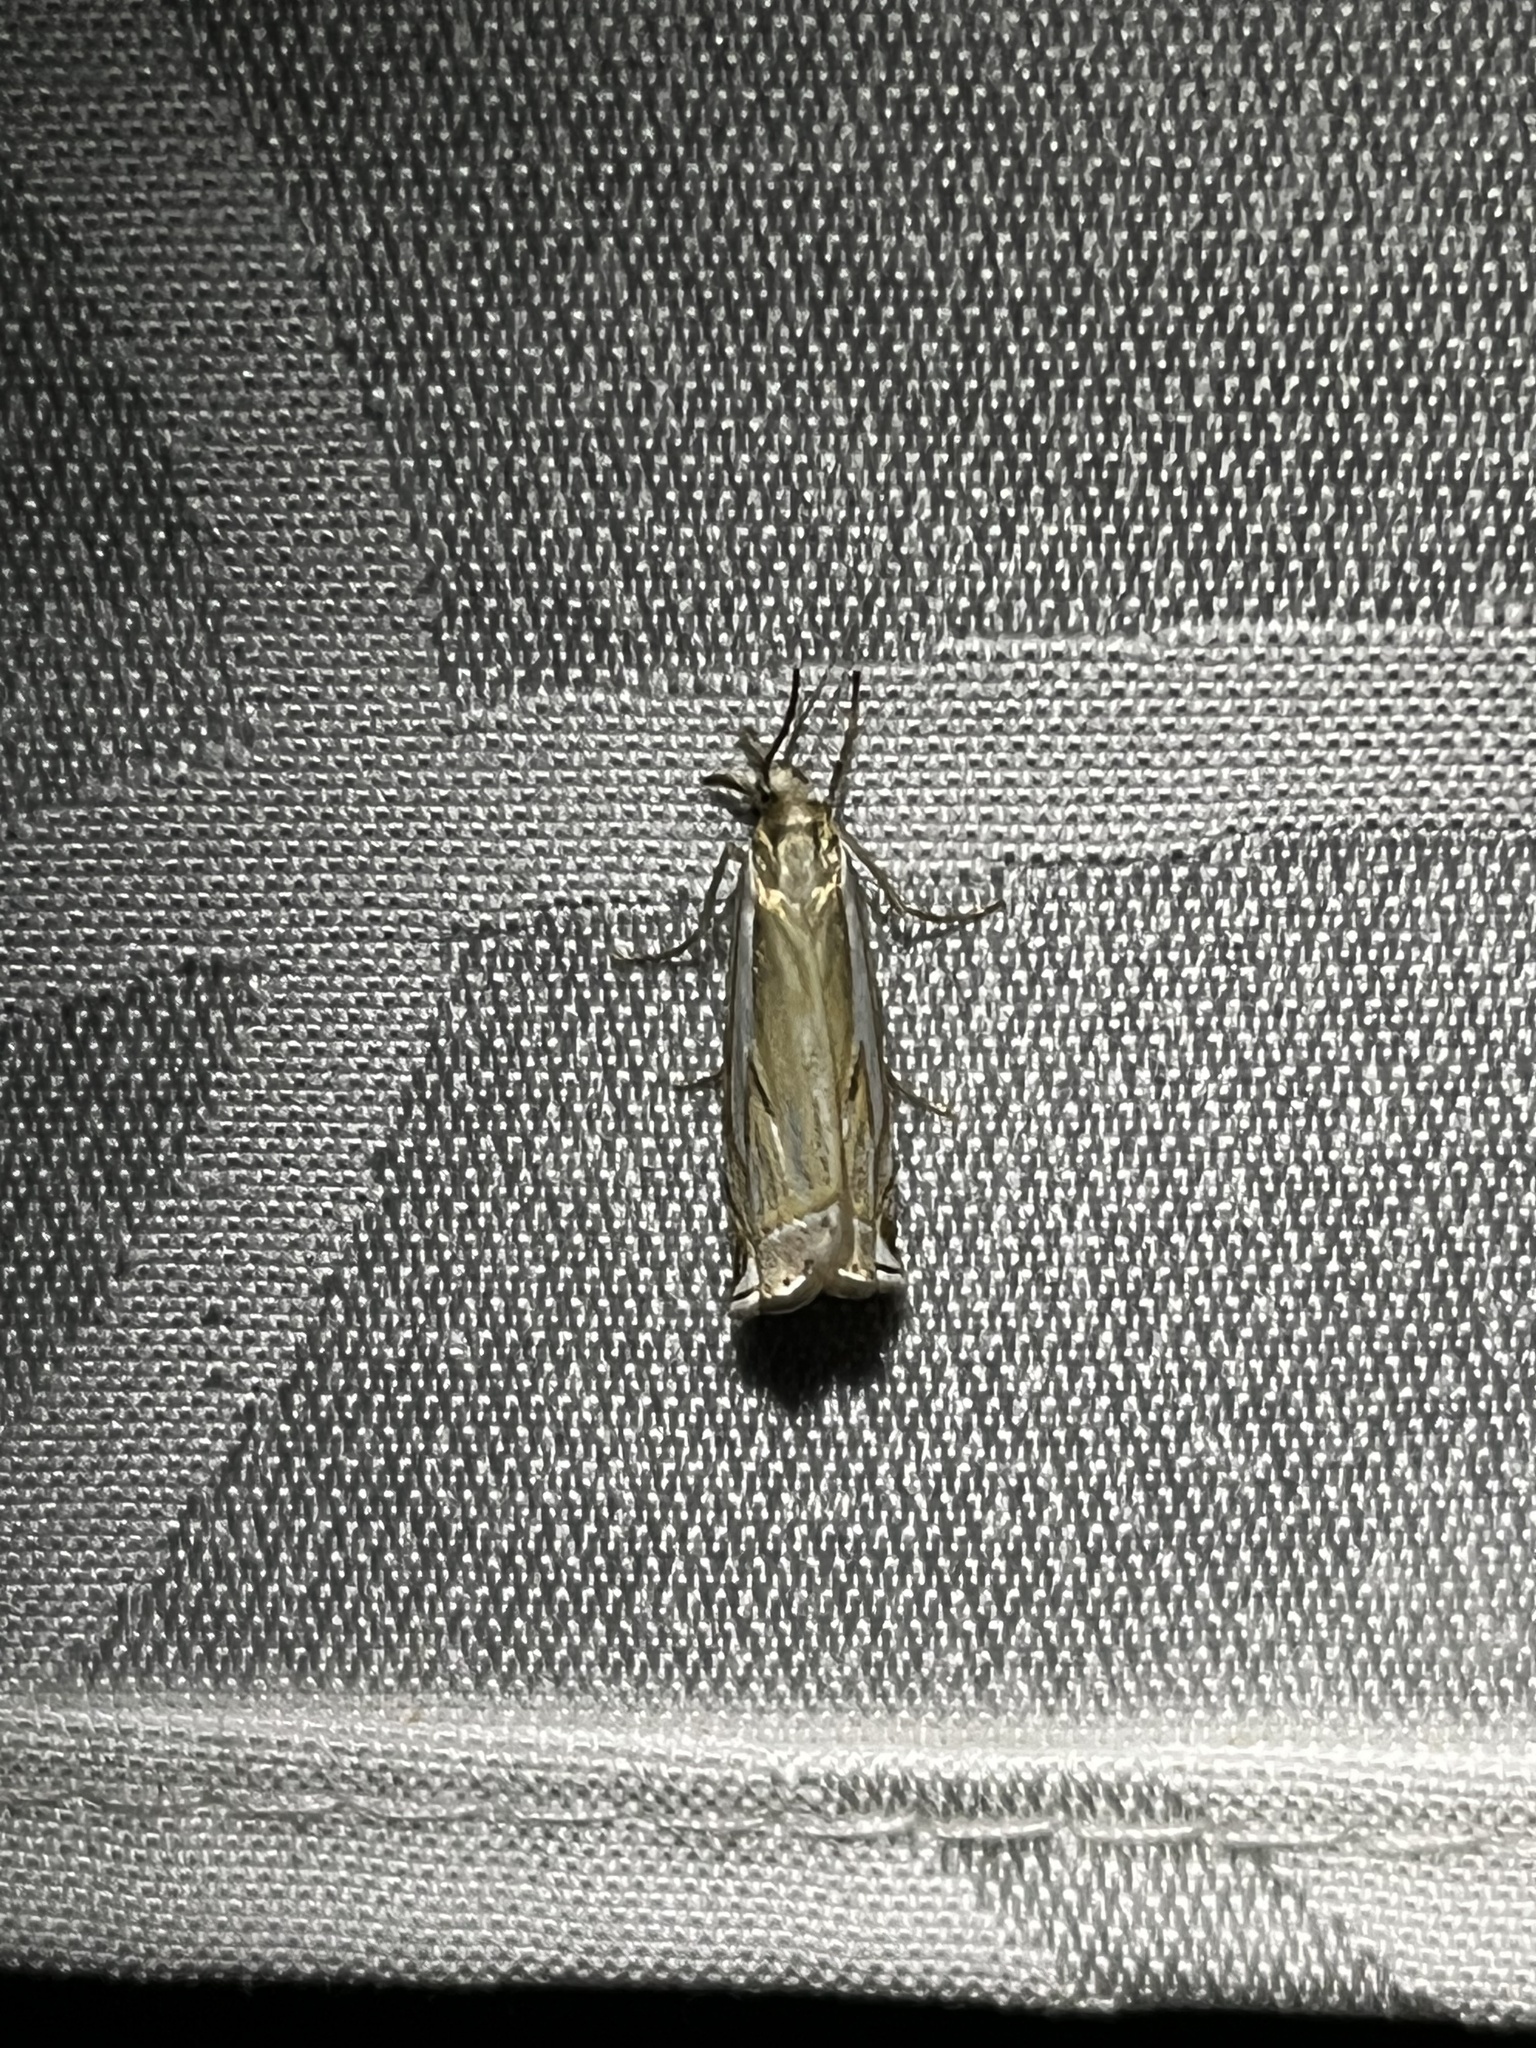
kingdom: Animalia
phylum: Arthropoda
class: Insecta
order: Lepidoptera
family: Crambidae
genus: Crambus
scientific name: Crambus
